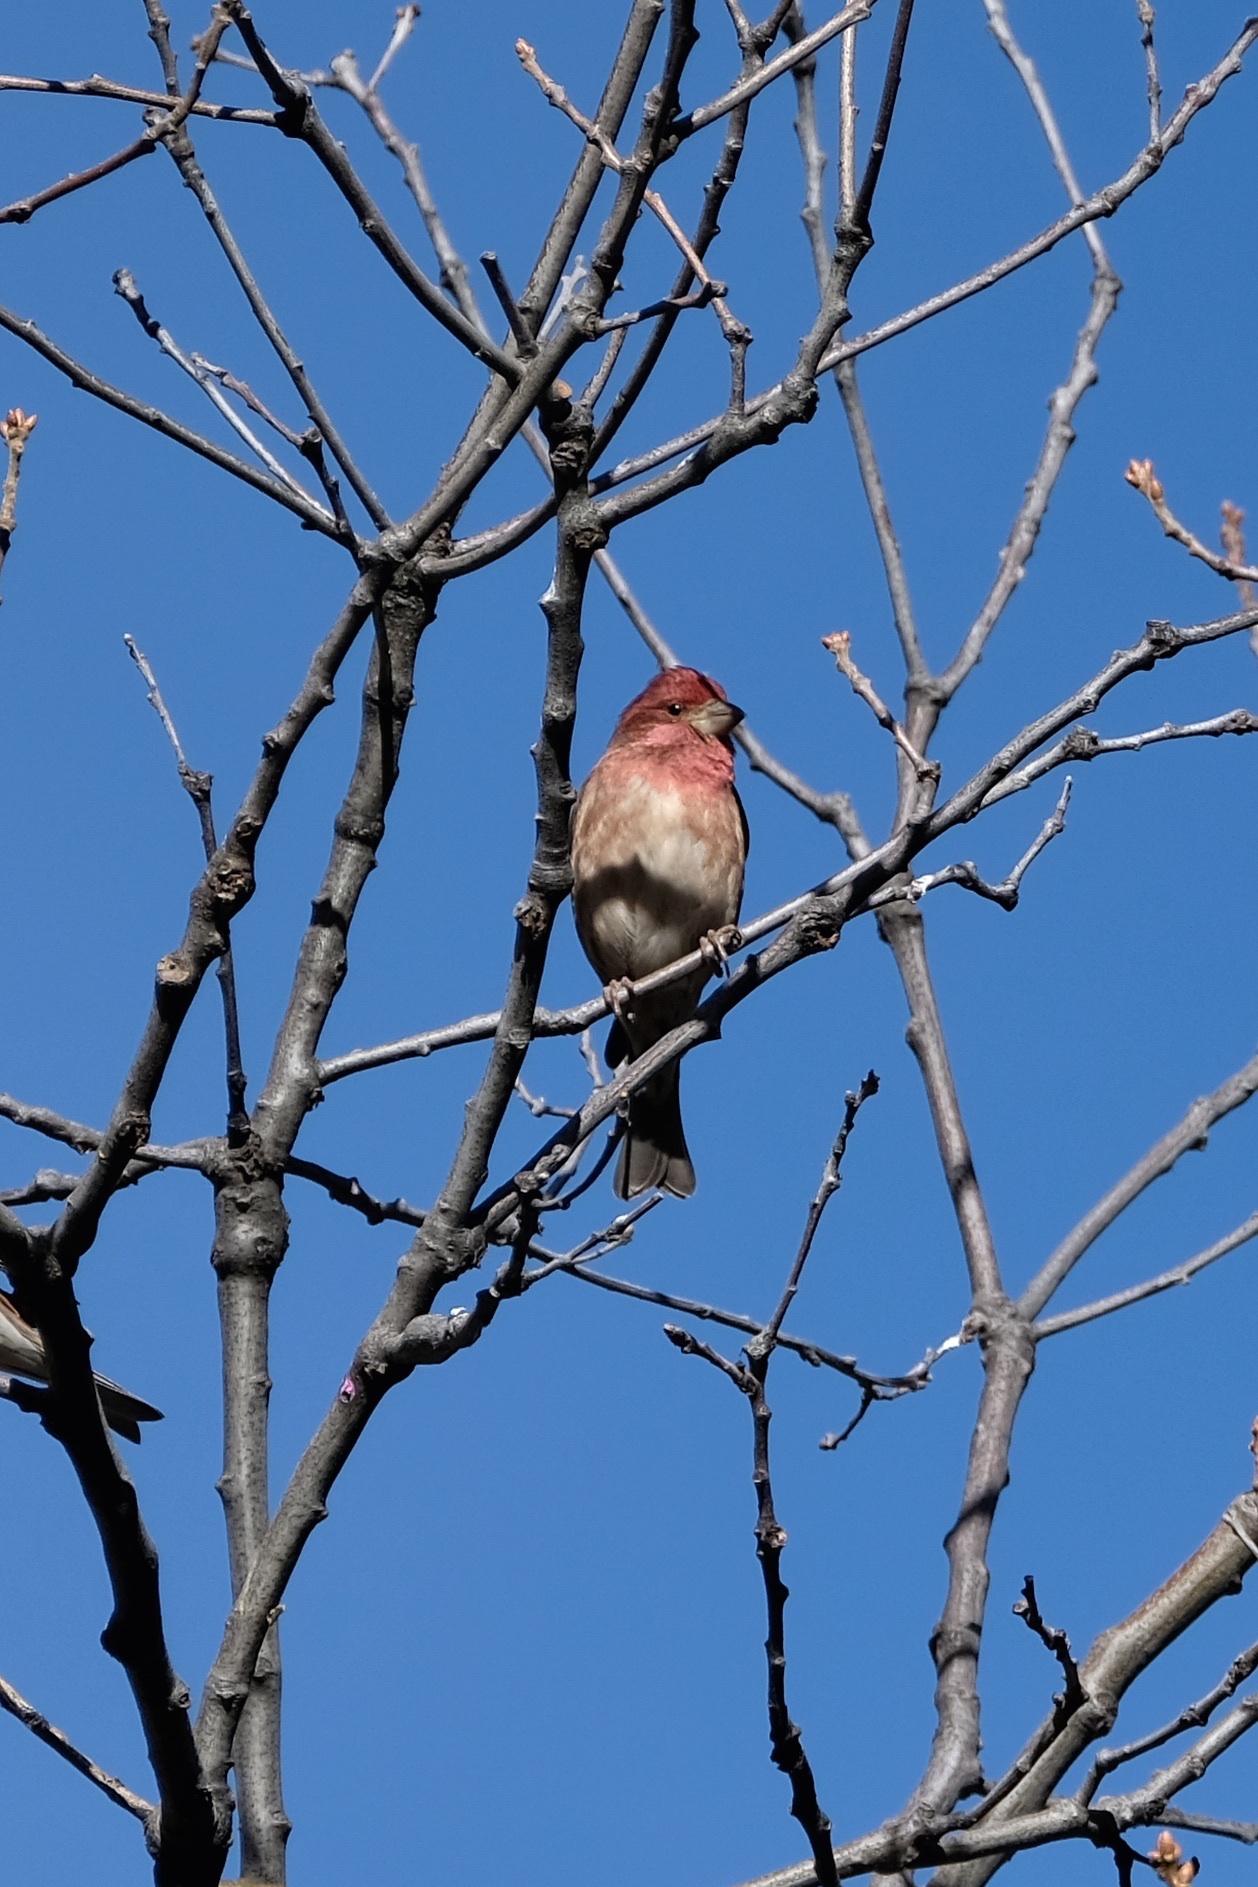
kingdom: Animalia
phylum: Chordata
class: Aves
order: Passeriformes
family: Fringillidae
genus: Haemorhous
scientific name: Haemorhous purpureus
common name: Purple finch
